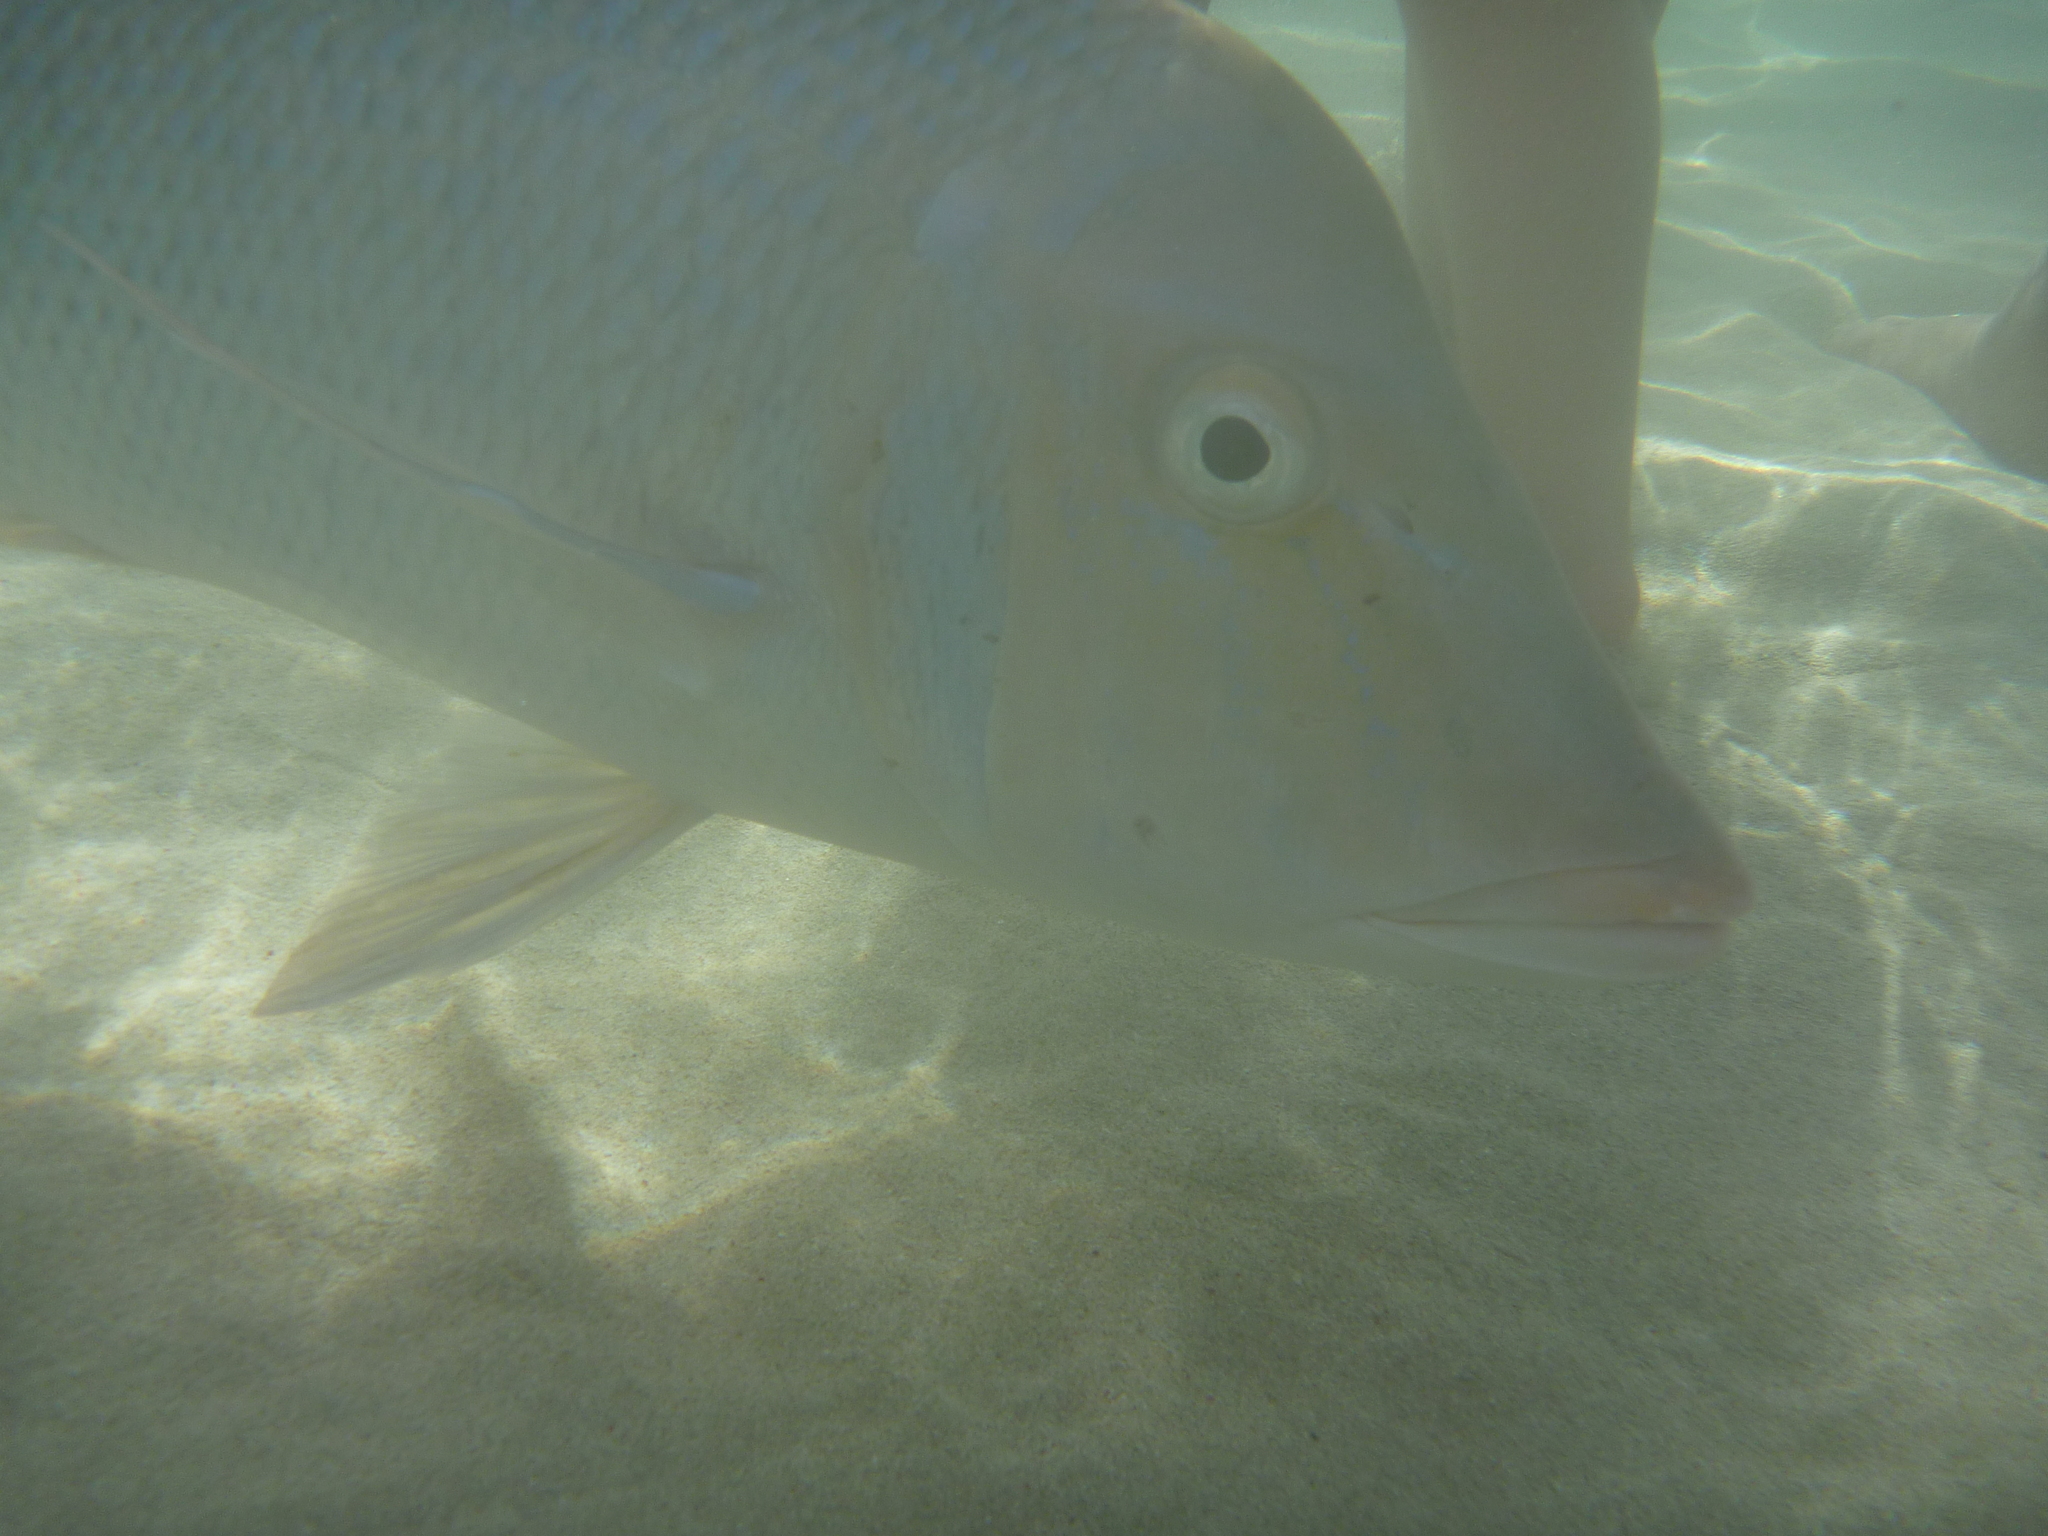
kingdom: Animalia
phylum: Chordata
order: Perciformes
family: Lethrinidae
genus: Lethrinus
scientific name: Lethrinus nebulosus
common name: Spangled emperor
